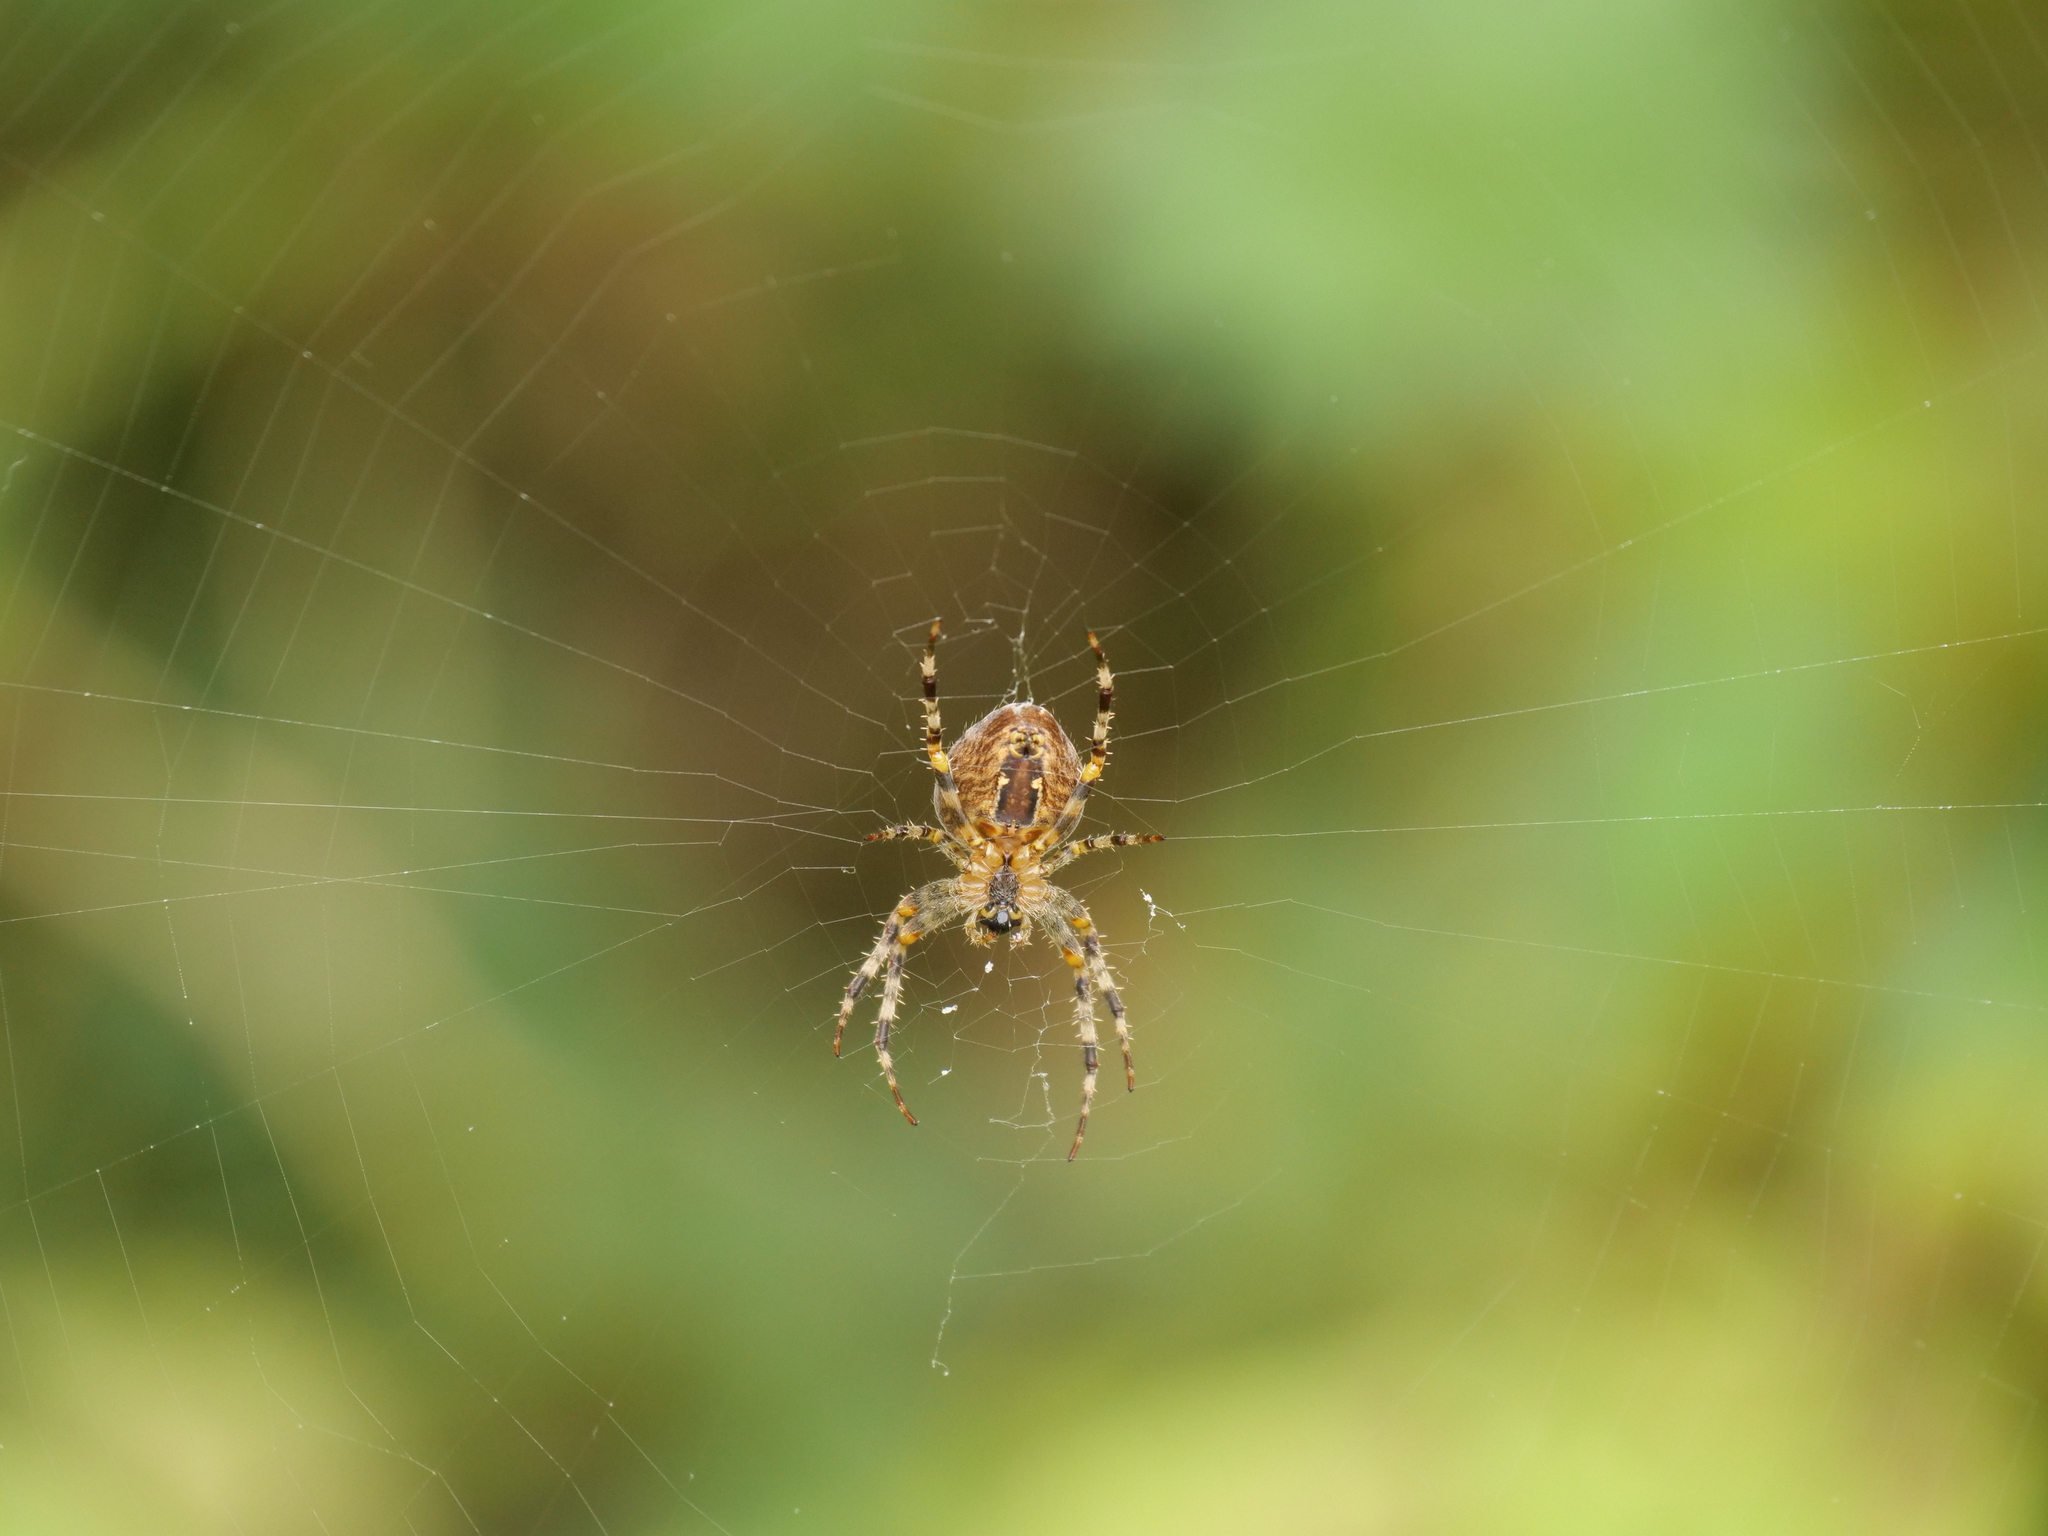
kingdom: Animalia
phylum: Arthropoda
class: Arachnida
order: Araneae
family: Araneidae
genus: Araneus
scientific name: Araneus diadematus
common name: Cross orbweaver
